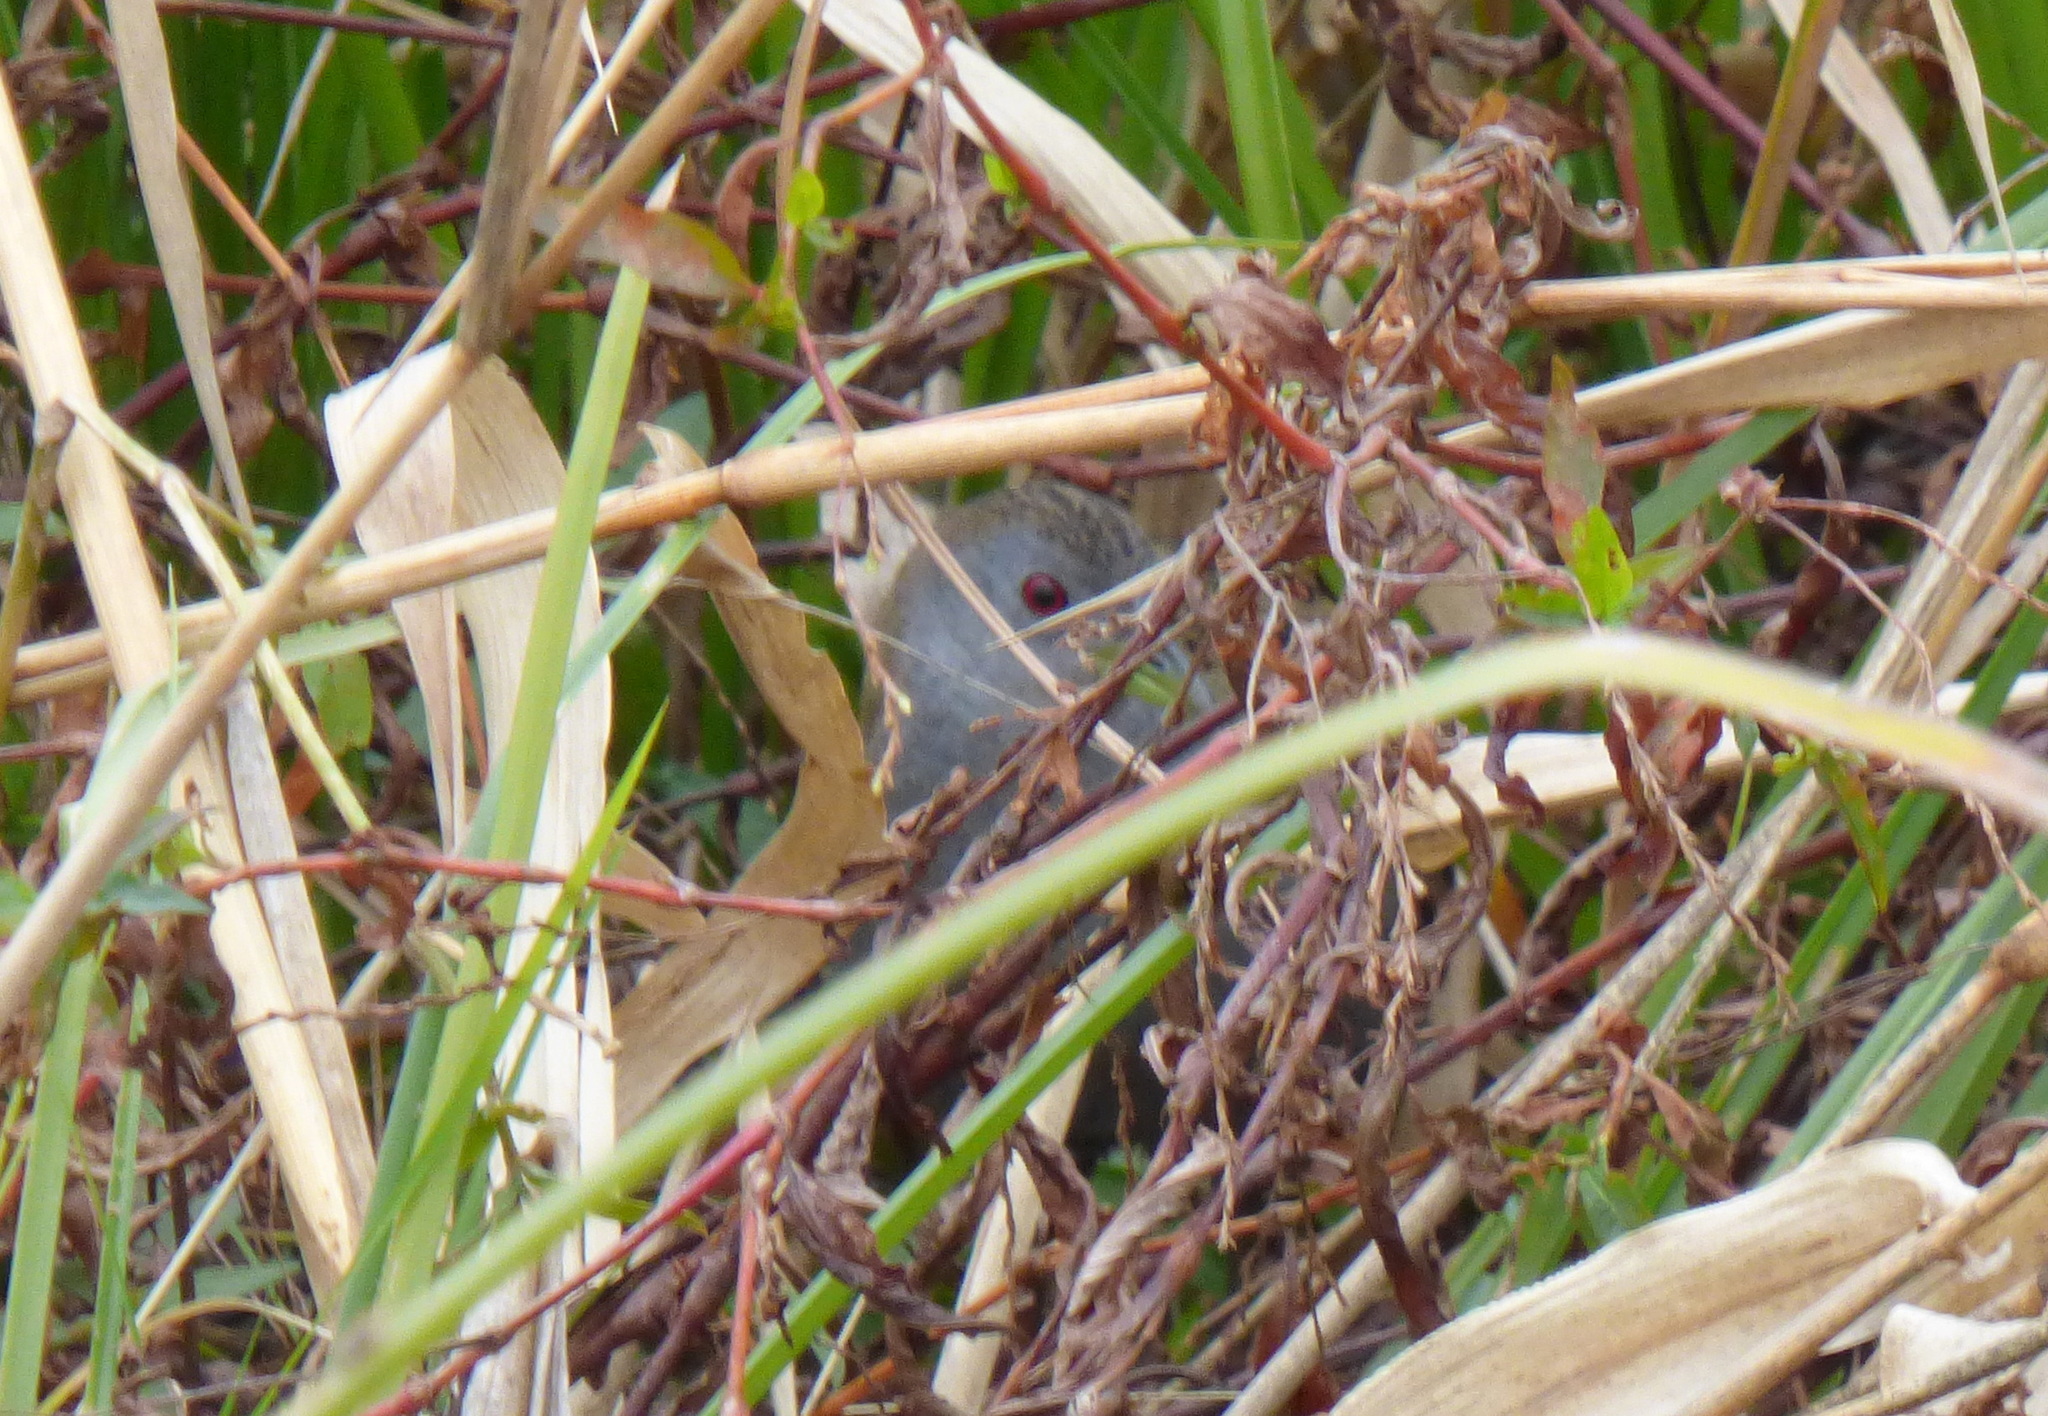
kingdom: Animalia
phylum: Chordata
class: Aves
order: Gruiformes
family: Rallidae
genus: Porzana
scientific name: Porzana albicollis
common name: Ash-throated crake
